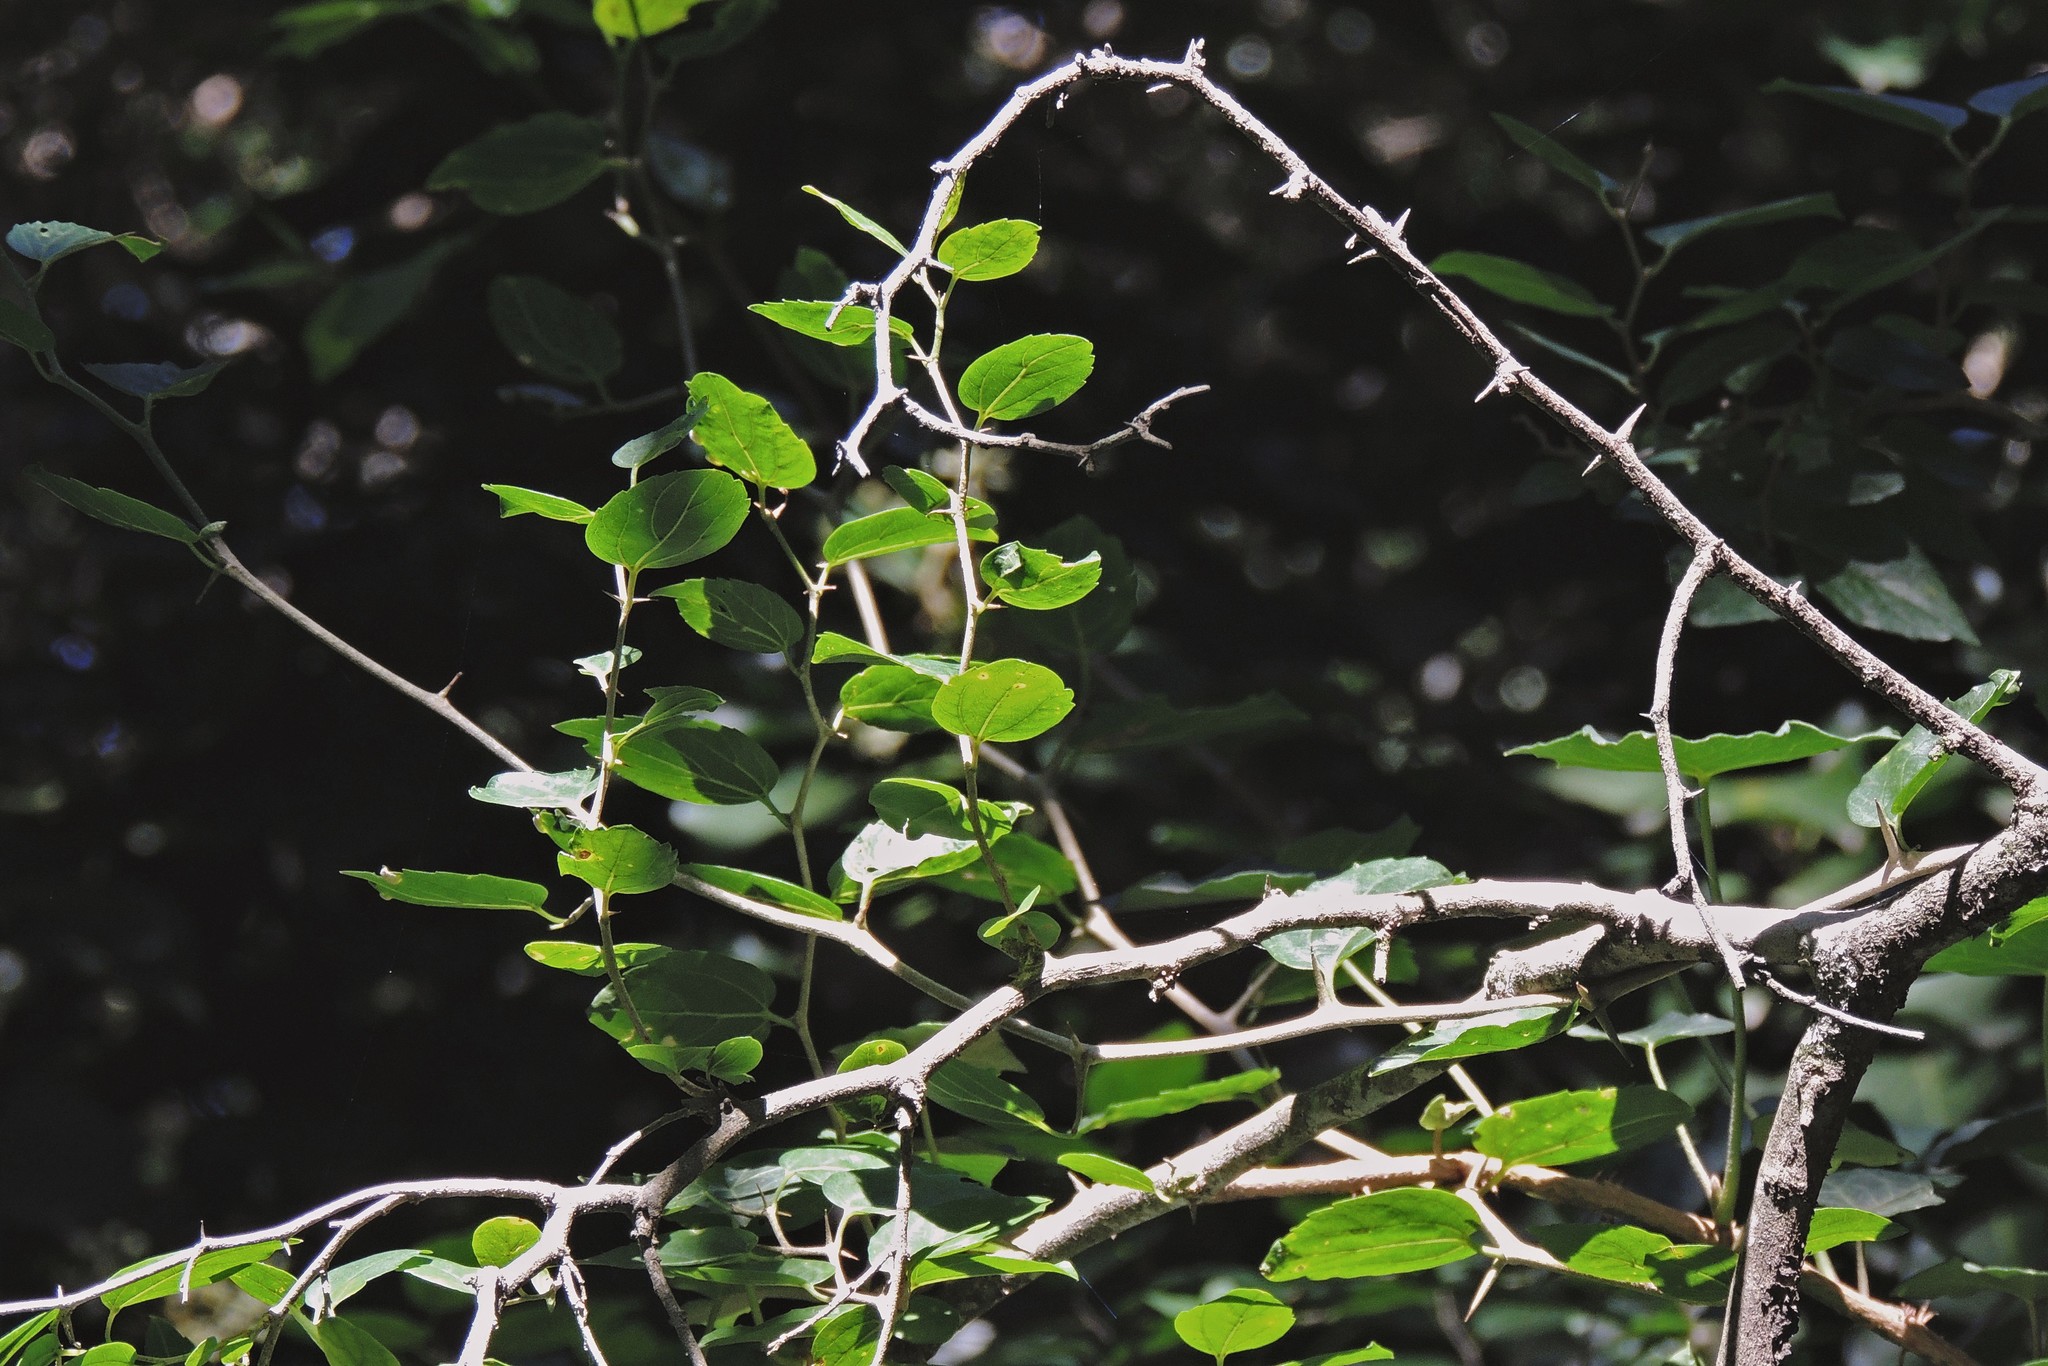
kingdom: Plantae
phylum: Tracheophyta
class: Magnoliopsida
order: Rosales
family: Cannabaceae
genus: Celtis
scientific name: Celtis tala
